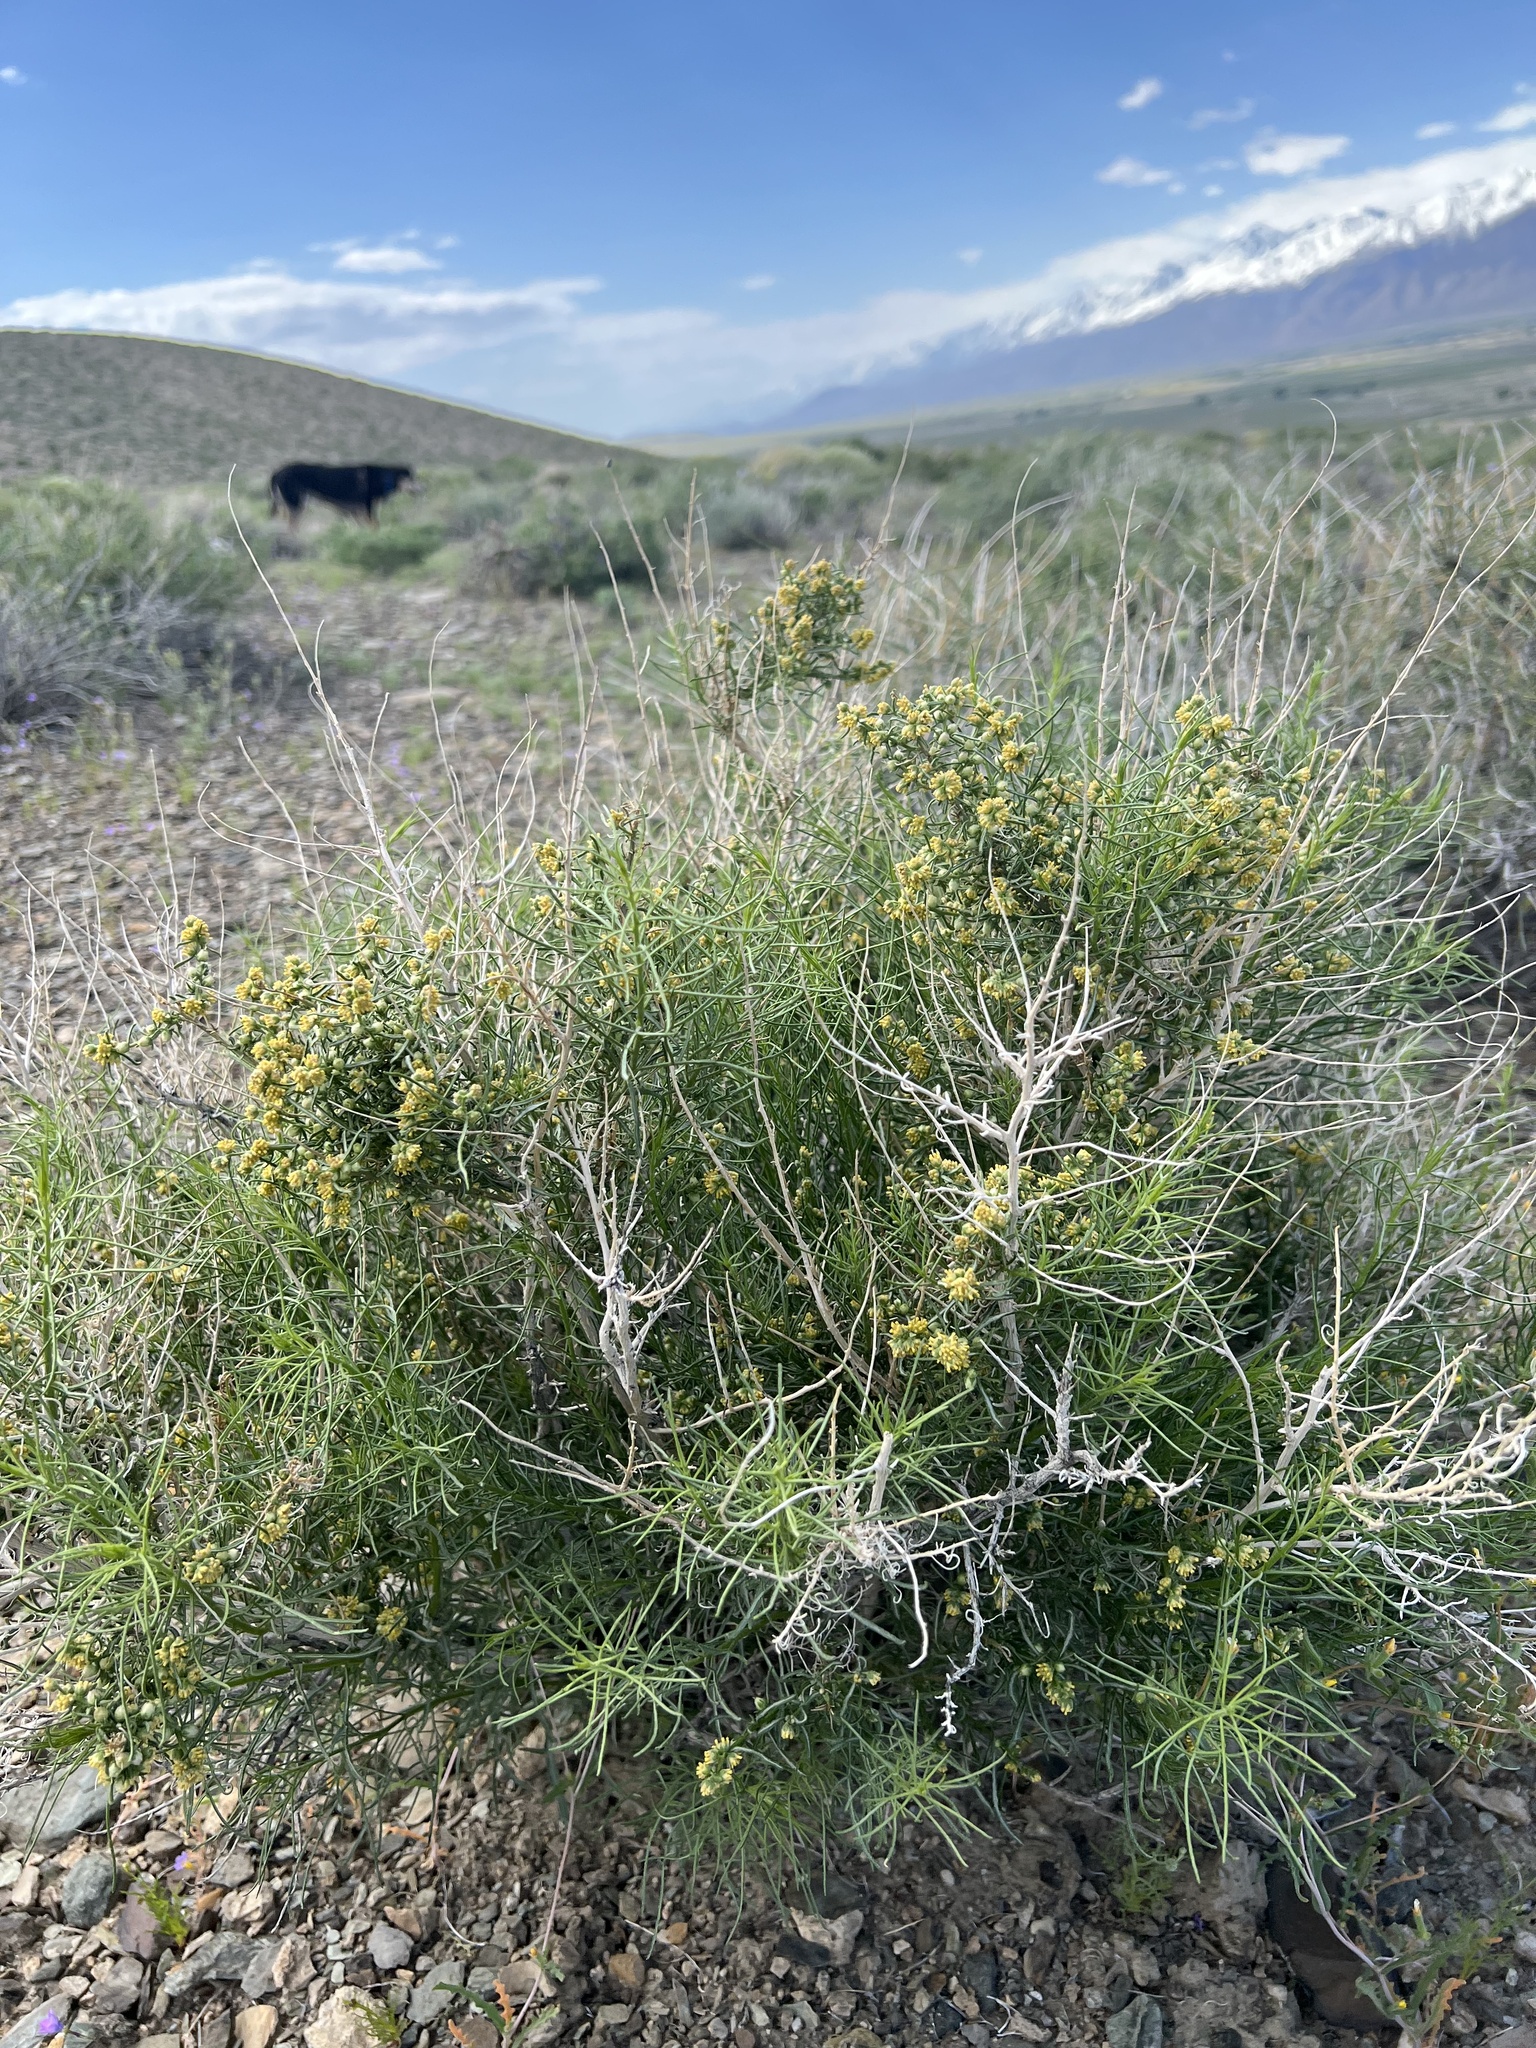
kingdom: Plantae
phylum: Tracheophyta
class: Magnoliopsida
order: Asterales
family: Asteraceae
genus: Ambrosia
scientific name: Ambrosia salsola
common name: Burrobrush
